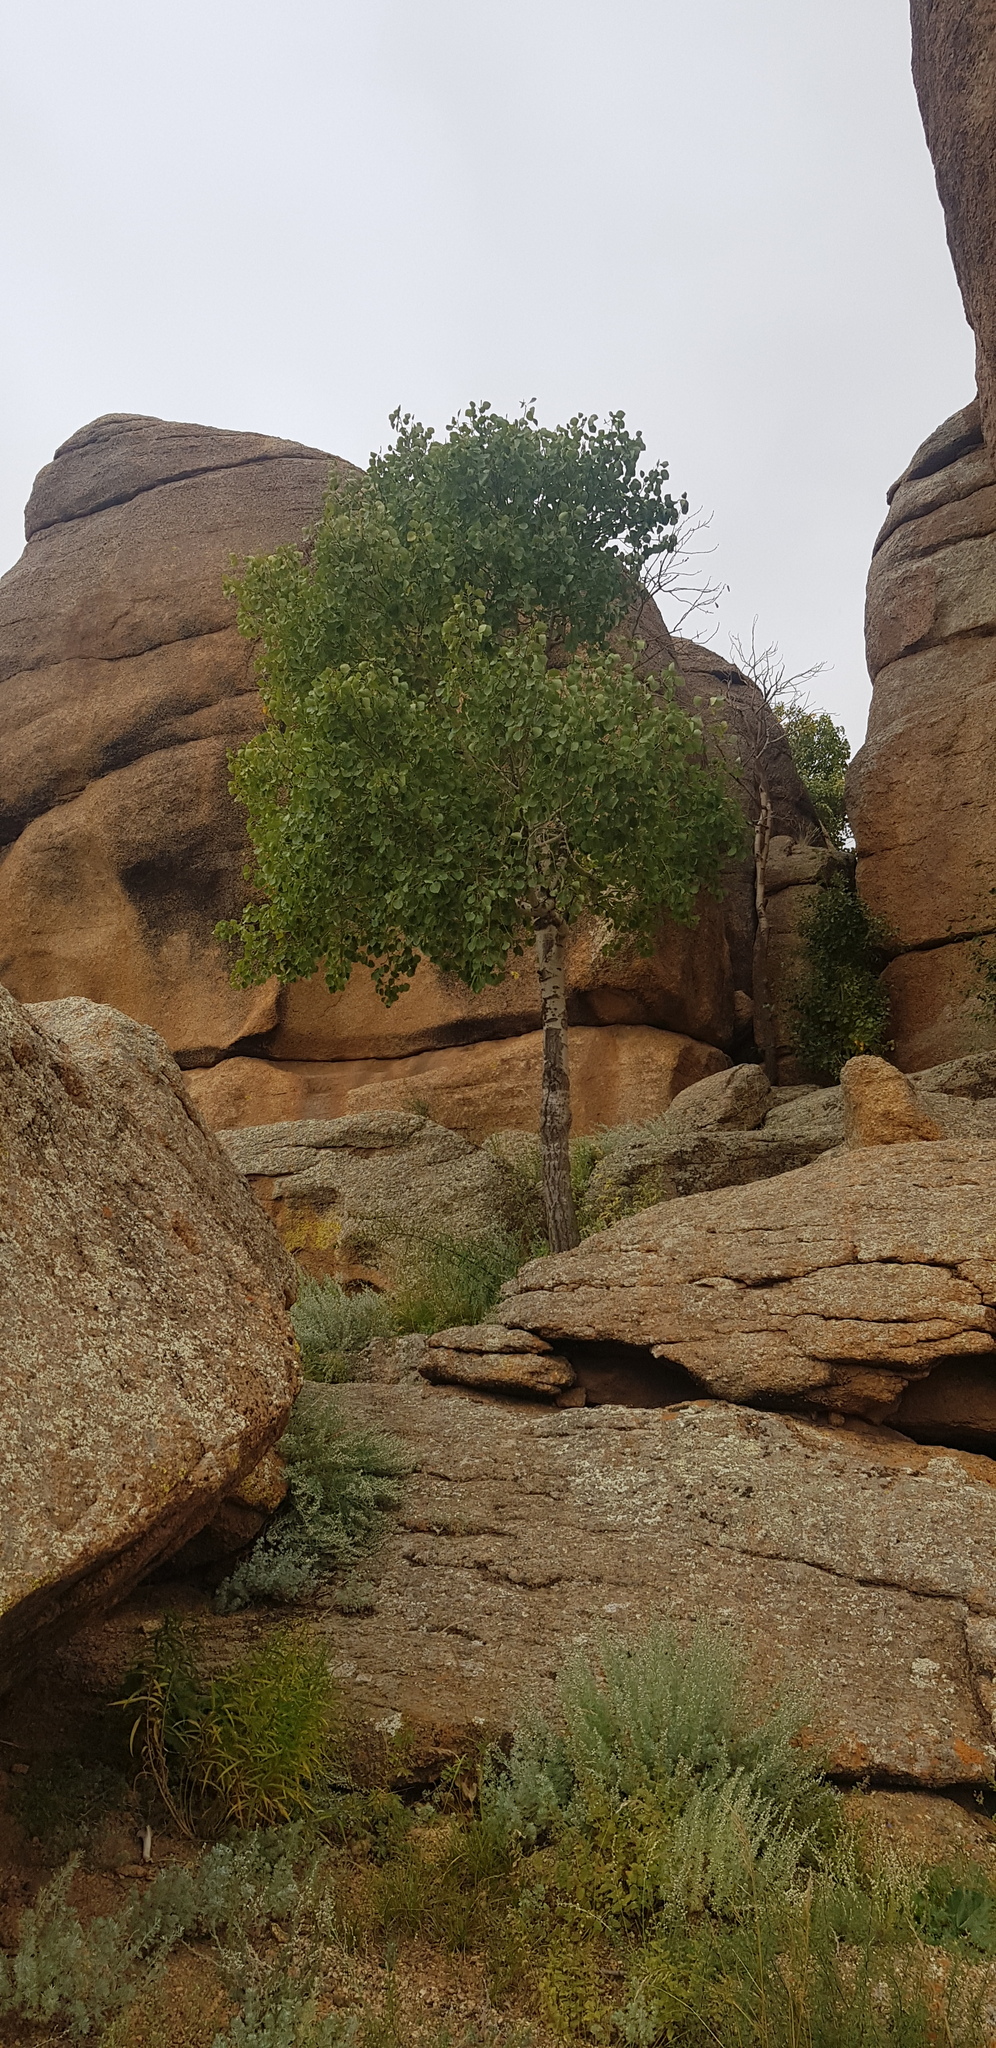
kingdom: Plantae
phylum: Tracheophyta
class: Magnoliopsida
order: Malpighiales
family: Salicaceae
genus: Populus
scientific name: Populus tremula
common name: European aspen
